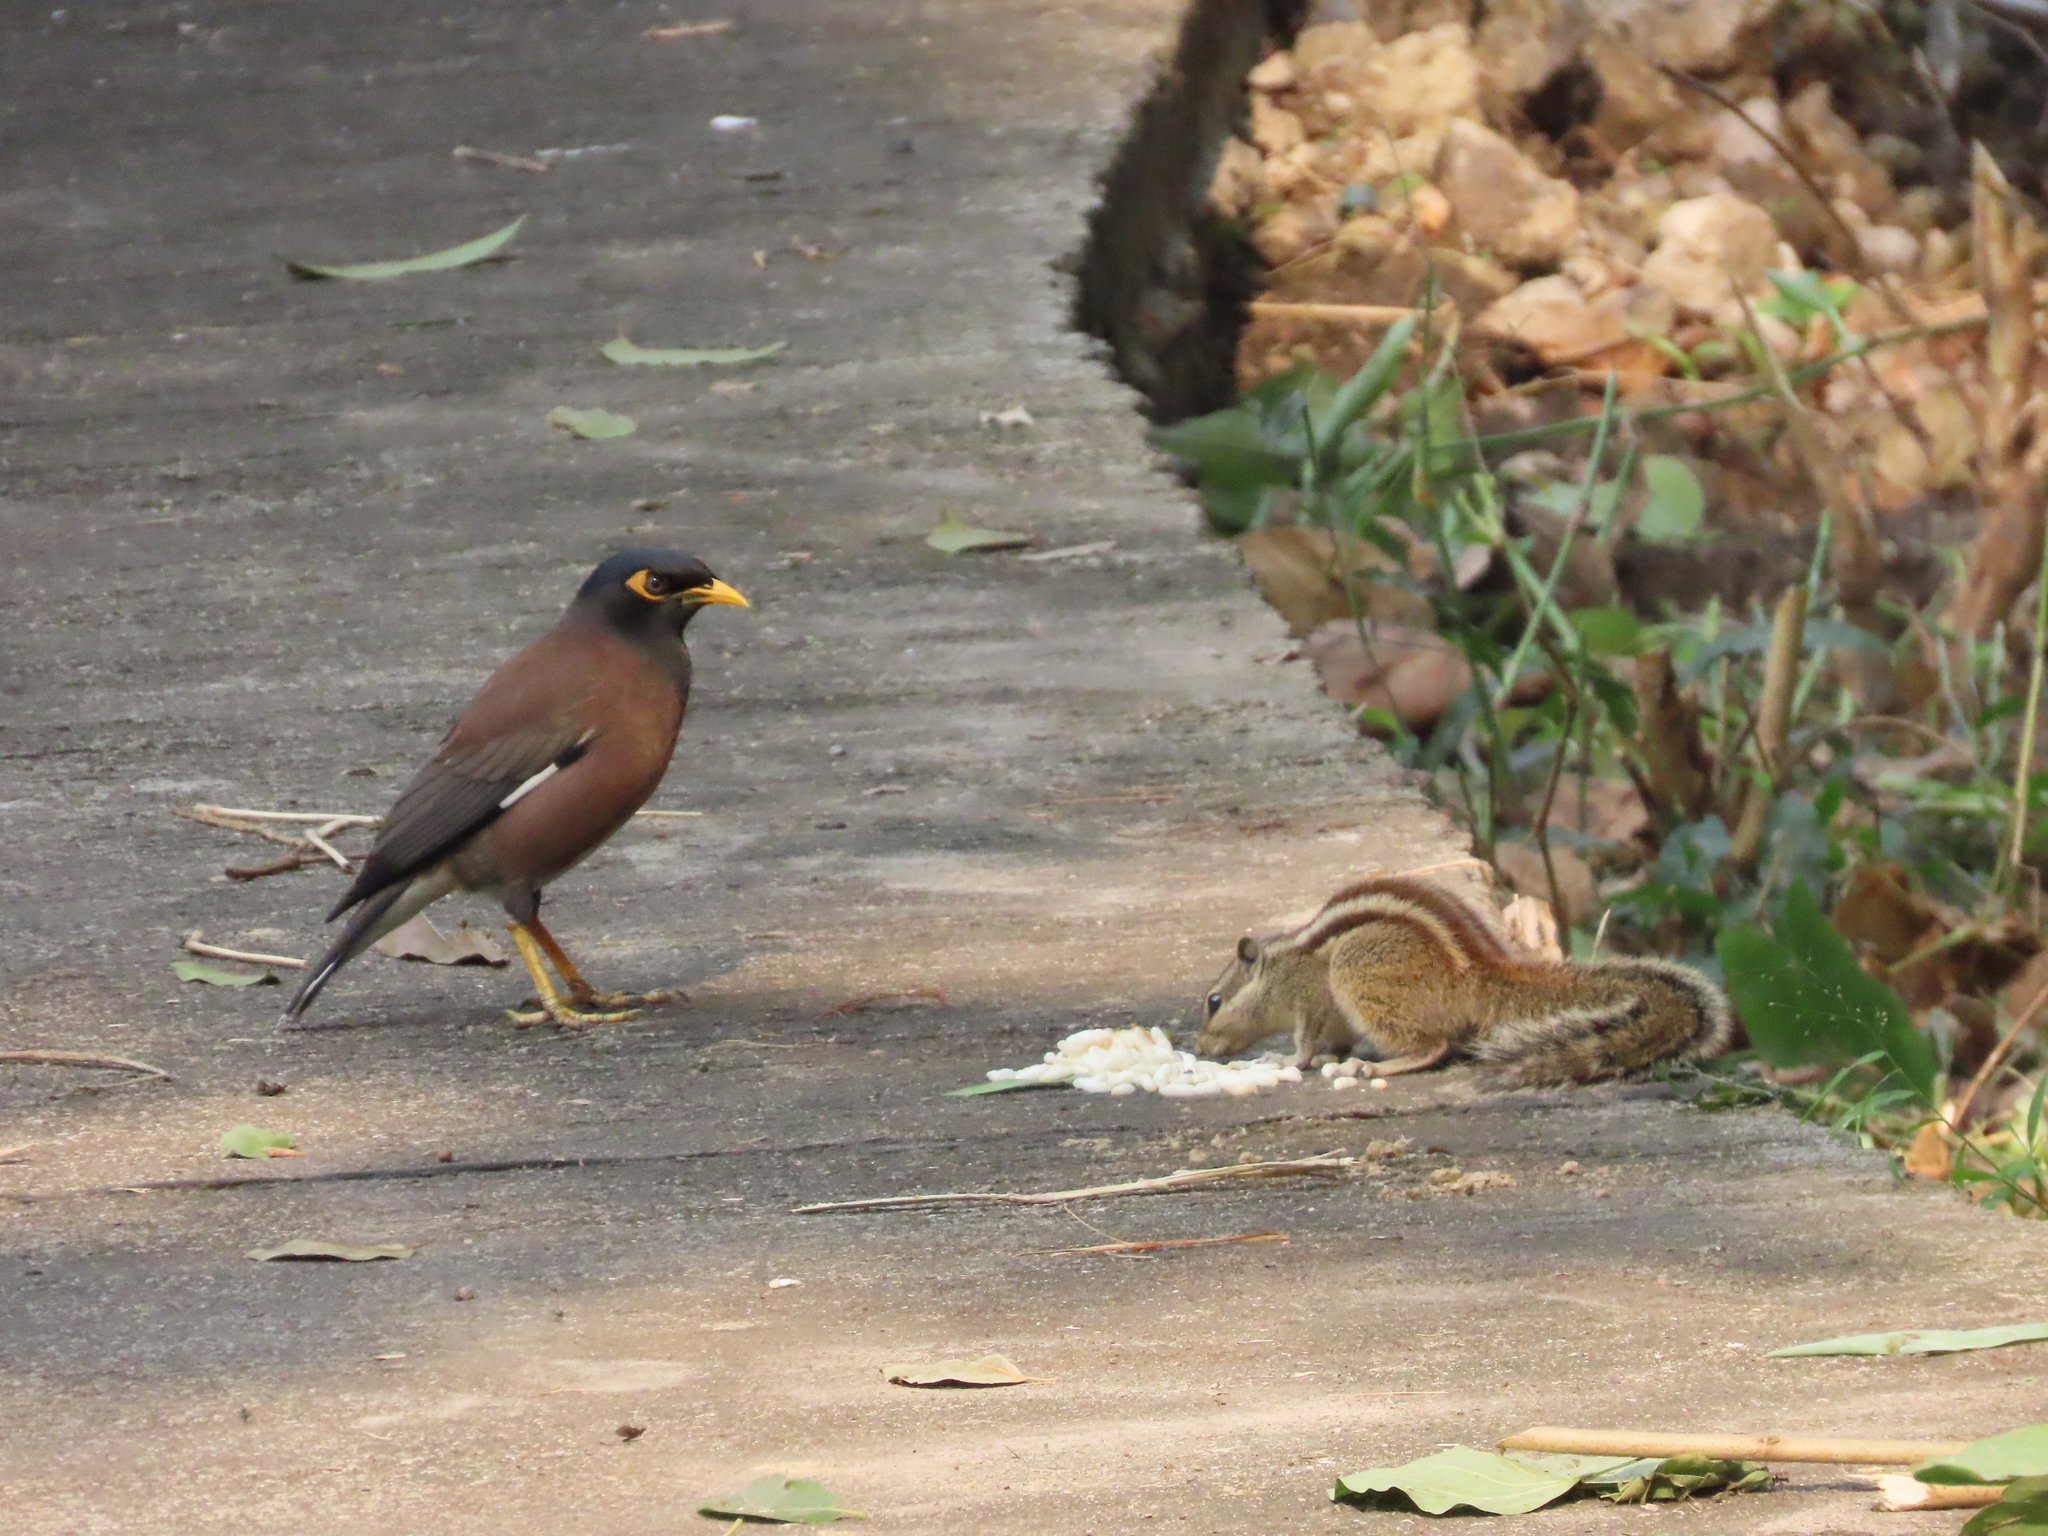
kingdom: Animalia
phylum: Chordata
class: Aves
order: Passeriformes
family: Sturnidae
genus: Acridotheres
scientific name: Acridotheres tristis
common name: Common myna
